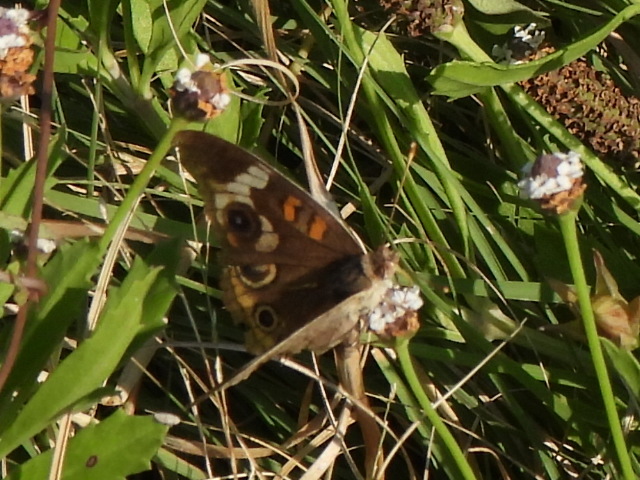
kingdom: Animalia
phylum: Arthropoda
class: Insecta
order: Lepidoptera
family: Nymphalidae
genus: Junonia
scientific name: Junonia coenia
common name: Common buckeye
